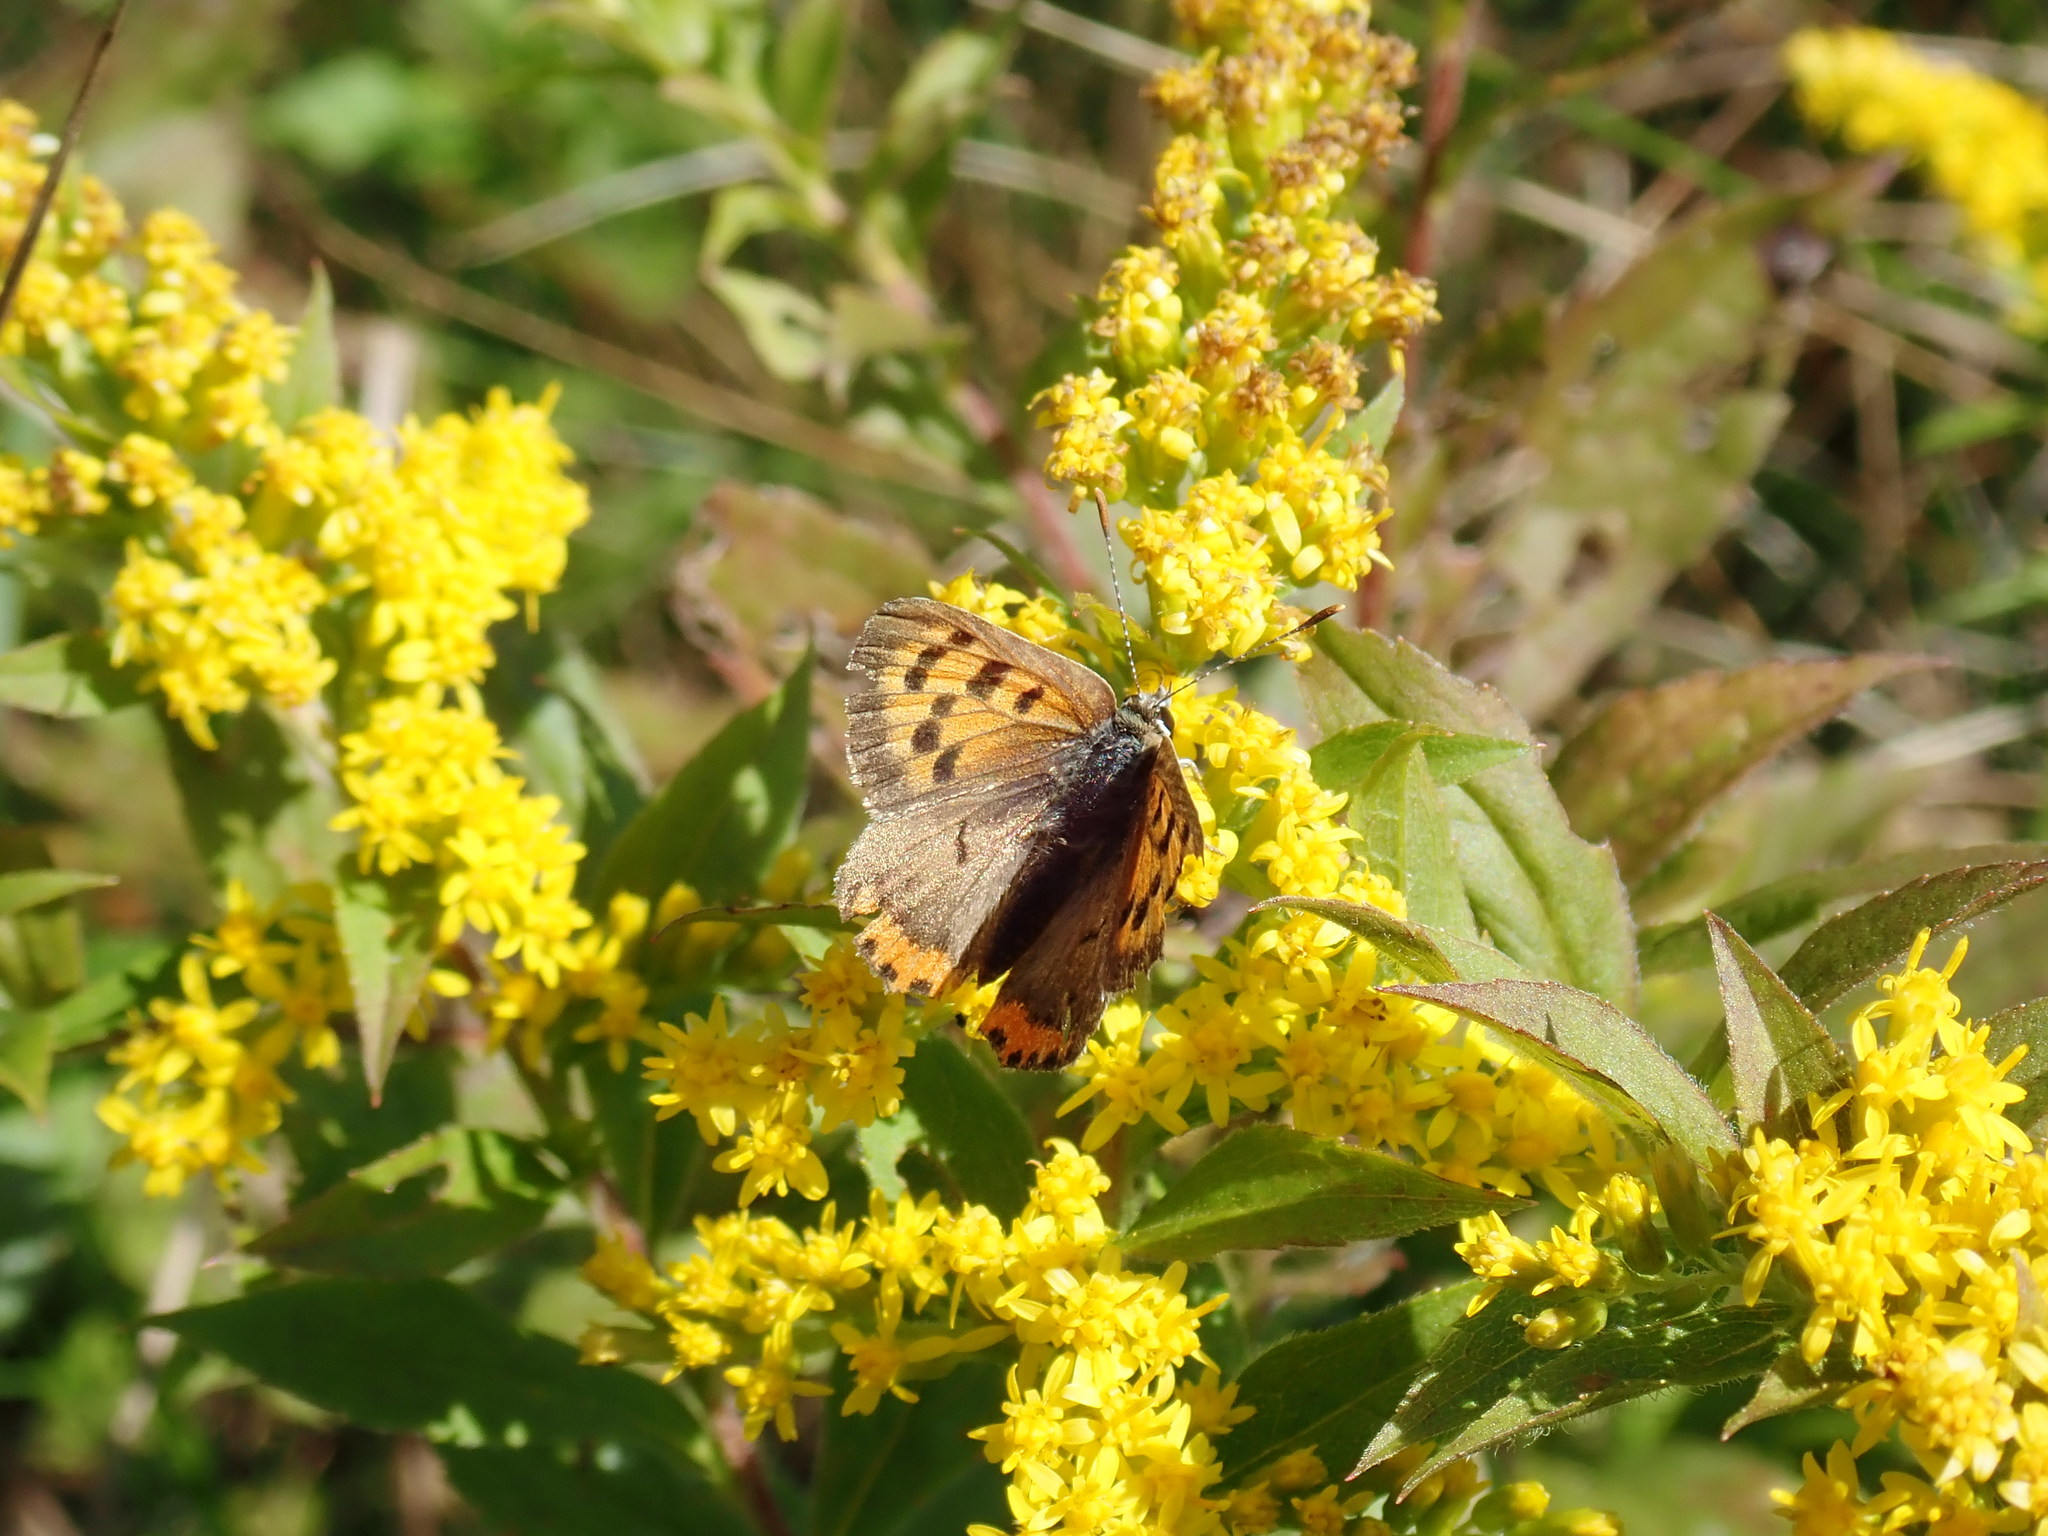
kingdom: Animalia
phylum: Arthropoda
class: Insecta
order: Lepidoptera
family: Lycaenidae
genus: Lycaena
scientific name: Lycaena hypophlaeas
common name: American copper
